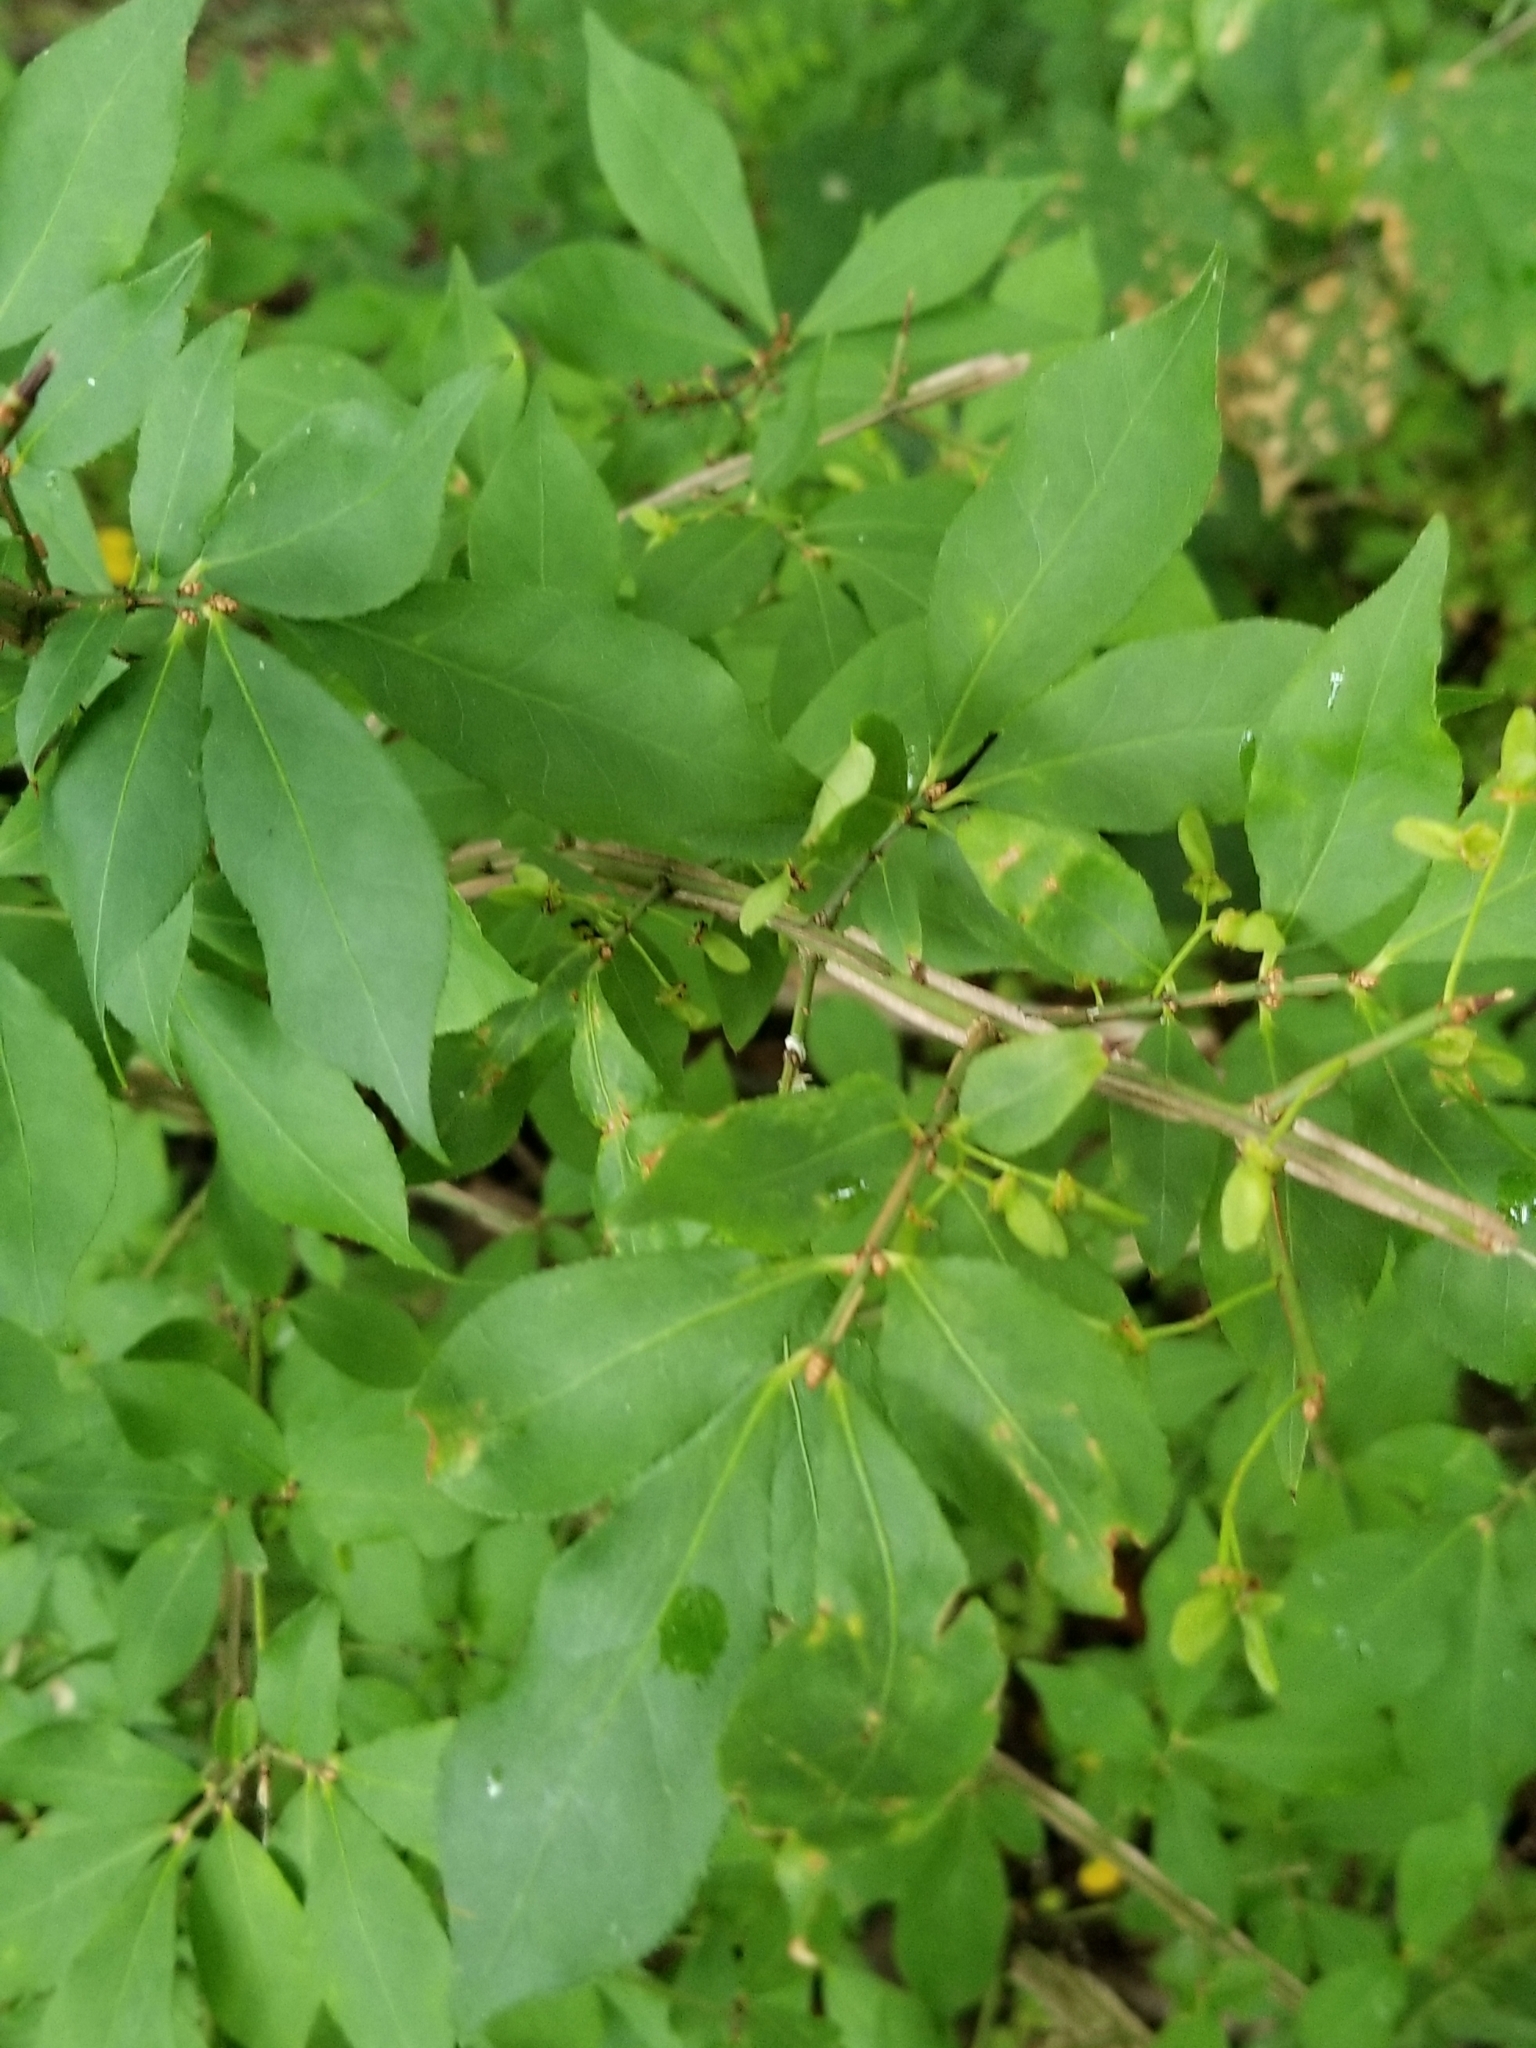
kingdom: Plantae
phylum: Tracheophyta
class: Magnoliopsida
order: Celastrales
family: Celastraceae
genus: Euonymus
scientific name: Euonymus alatus
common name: Winged euonymus
